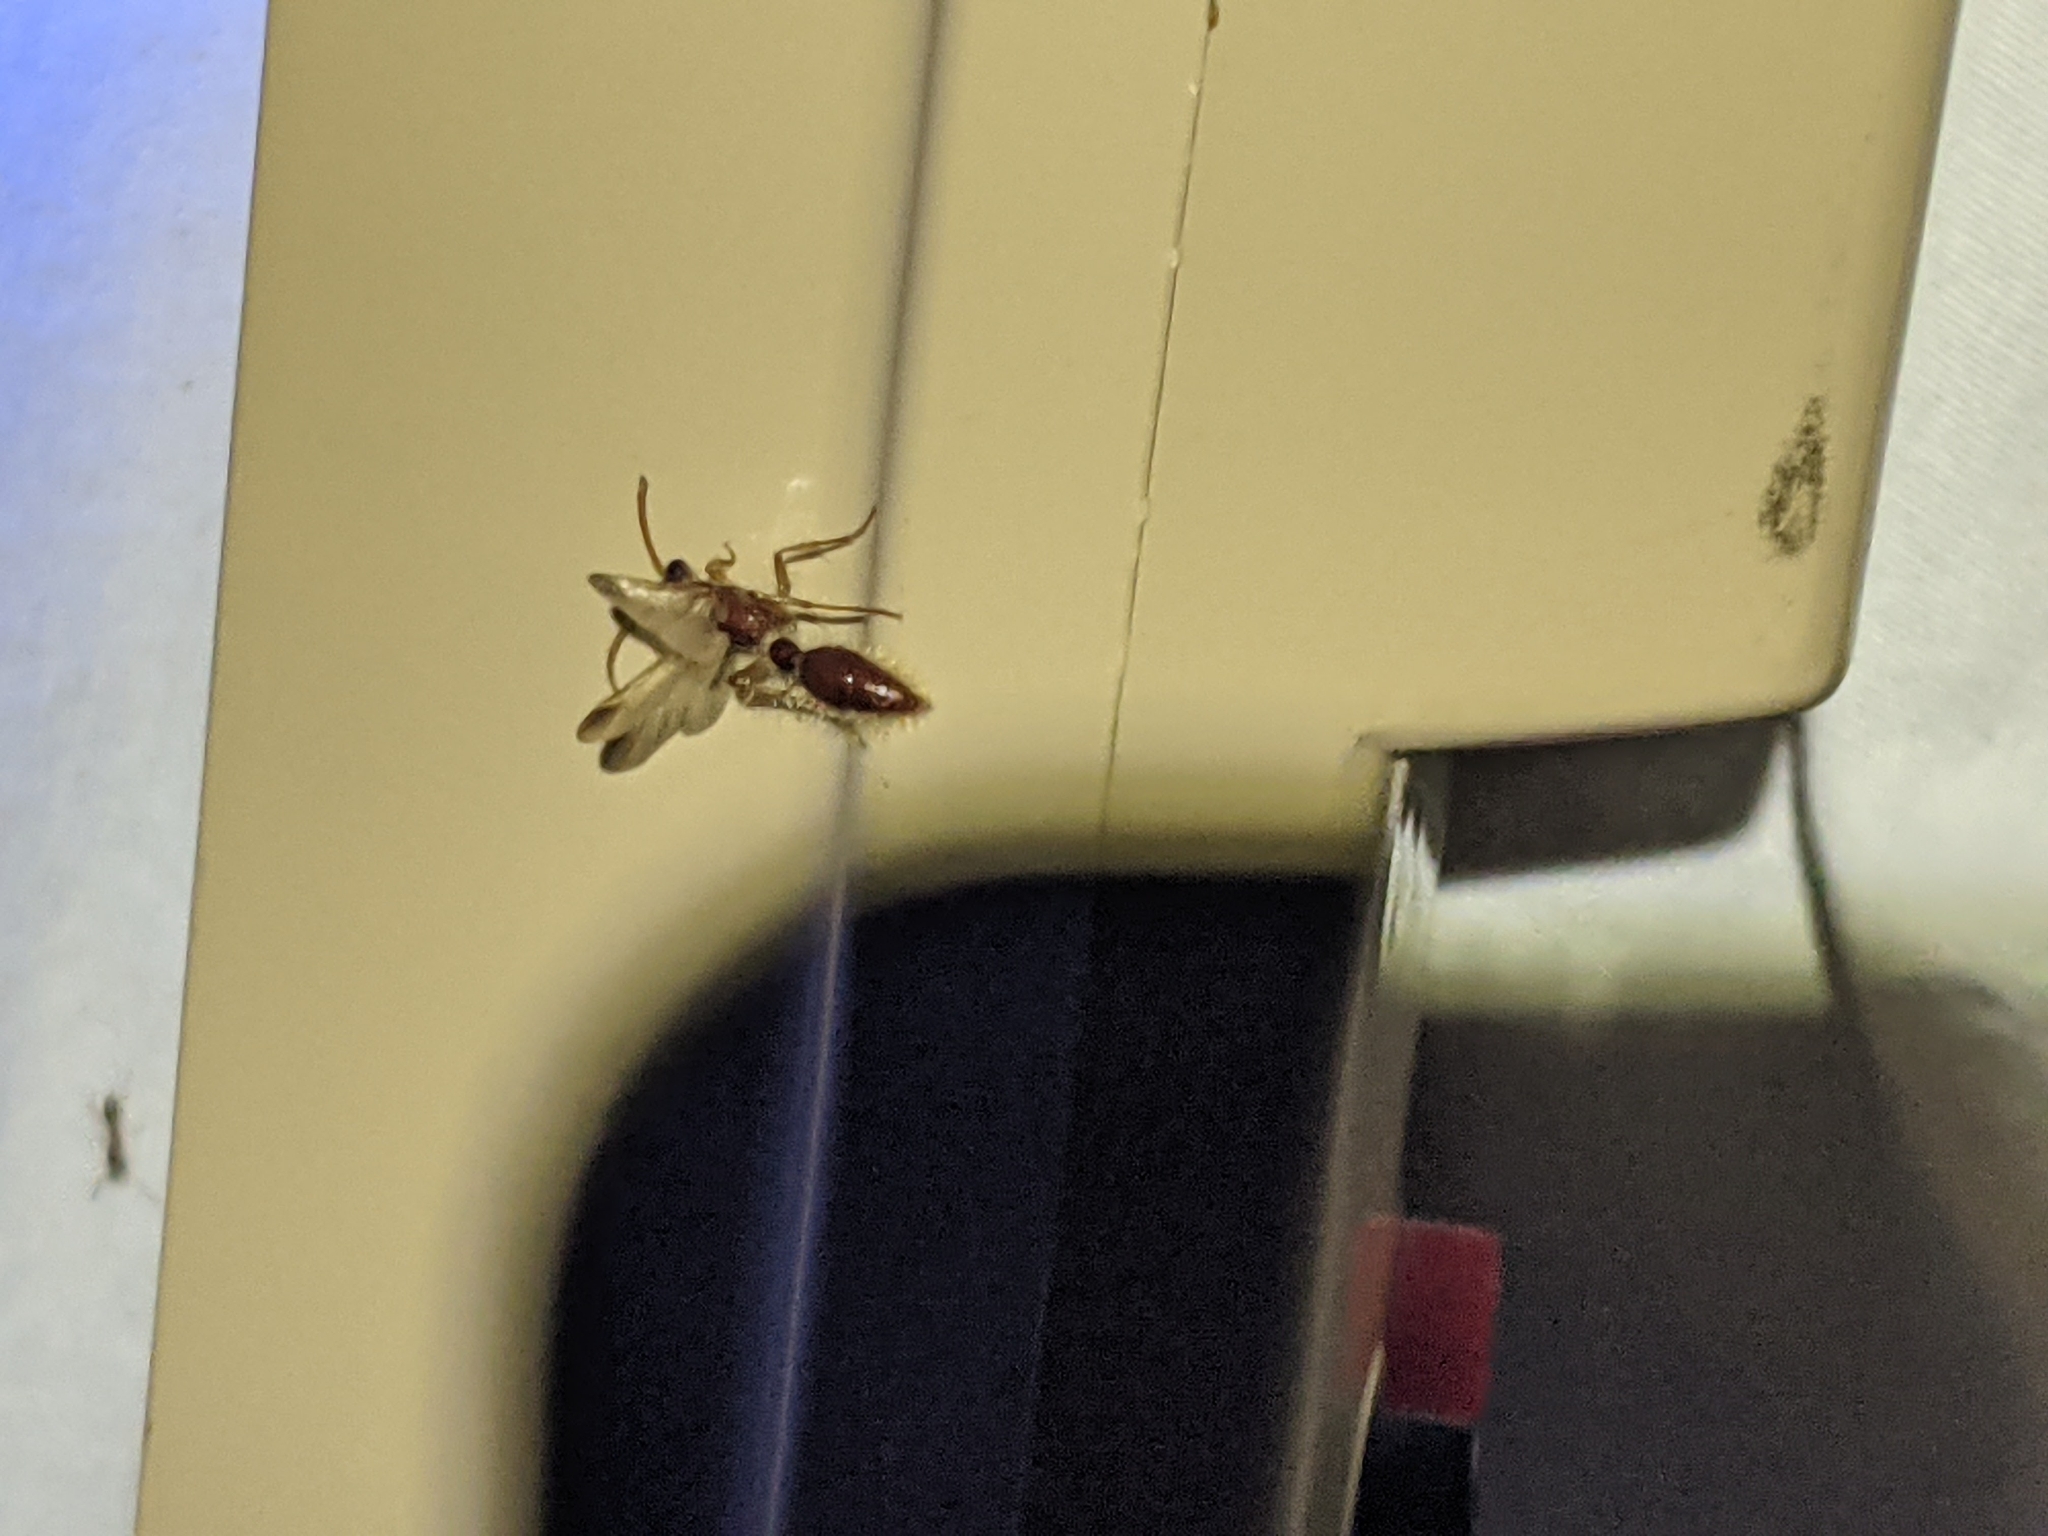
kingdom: Animalia
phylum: Arthropoda
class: Insecta
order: Hymenoptera
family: Chyphotidae
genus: Chyphotes
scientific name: Chyphotes
